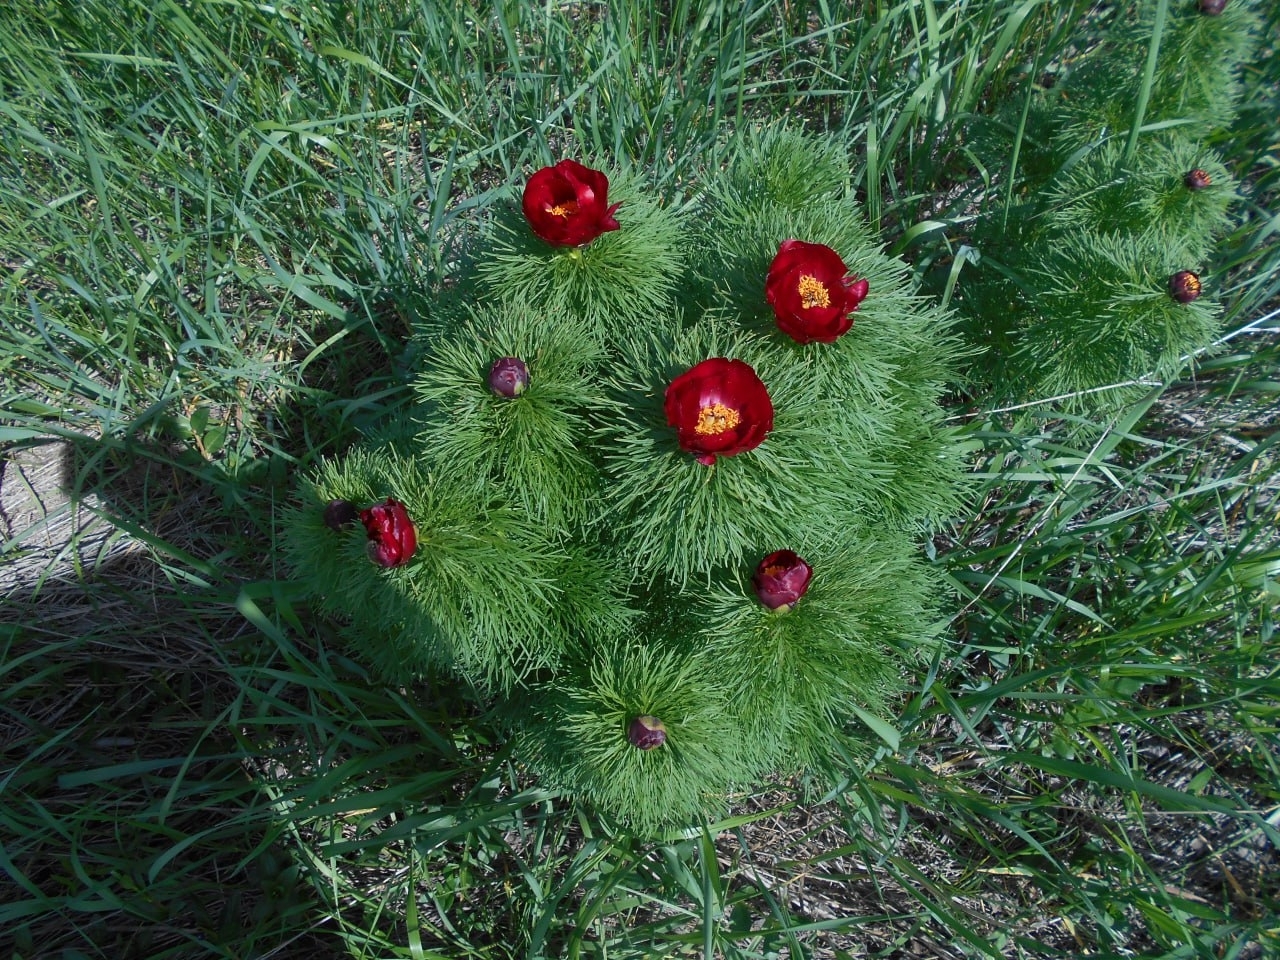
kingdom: Plantae
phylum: Tracheophyta
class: Magnoliopsida
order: Saxifragales
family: Paeoniaceae
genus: Paeonia
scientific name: Paeonia tenuifolia
